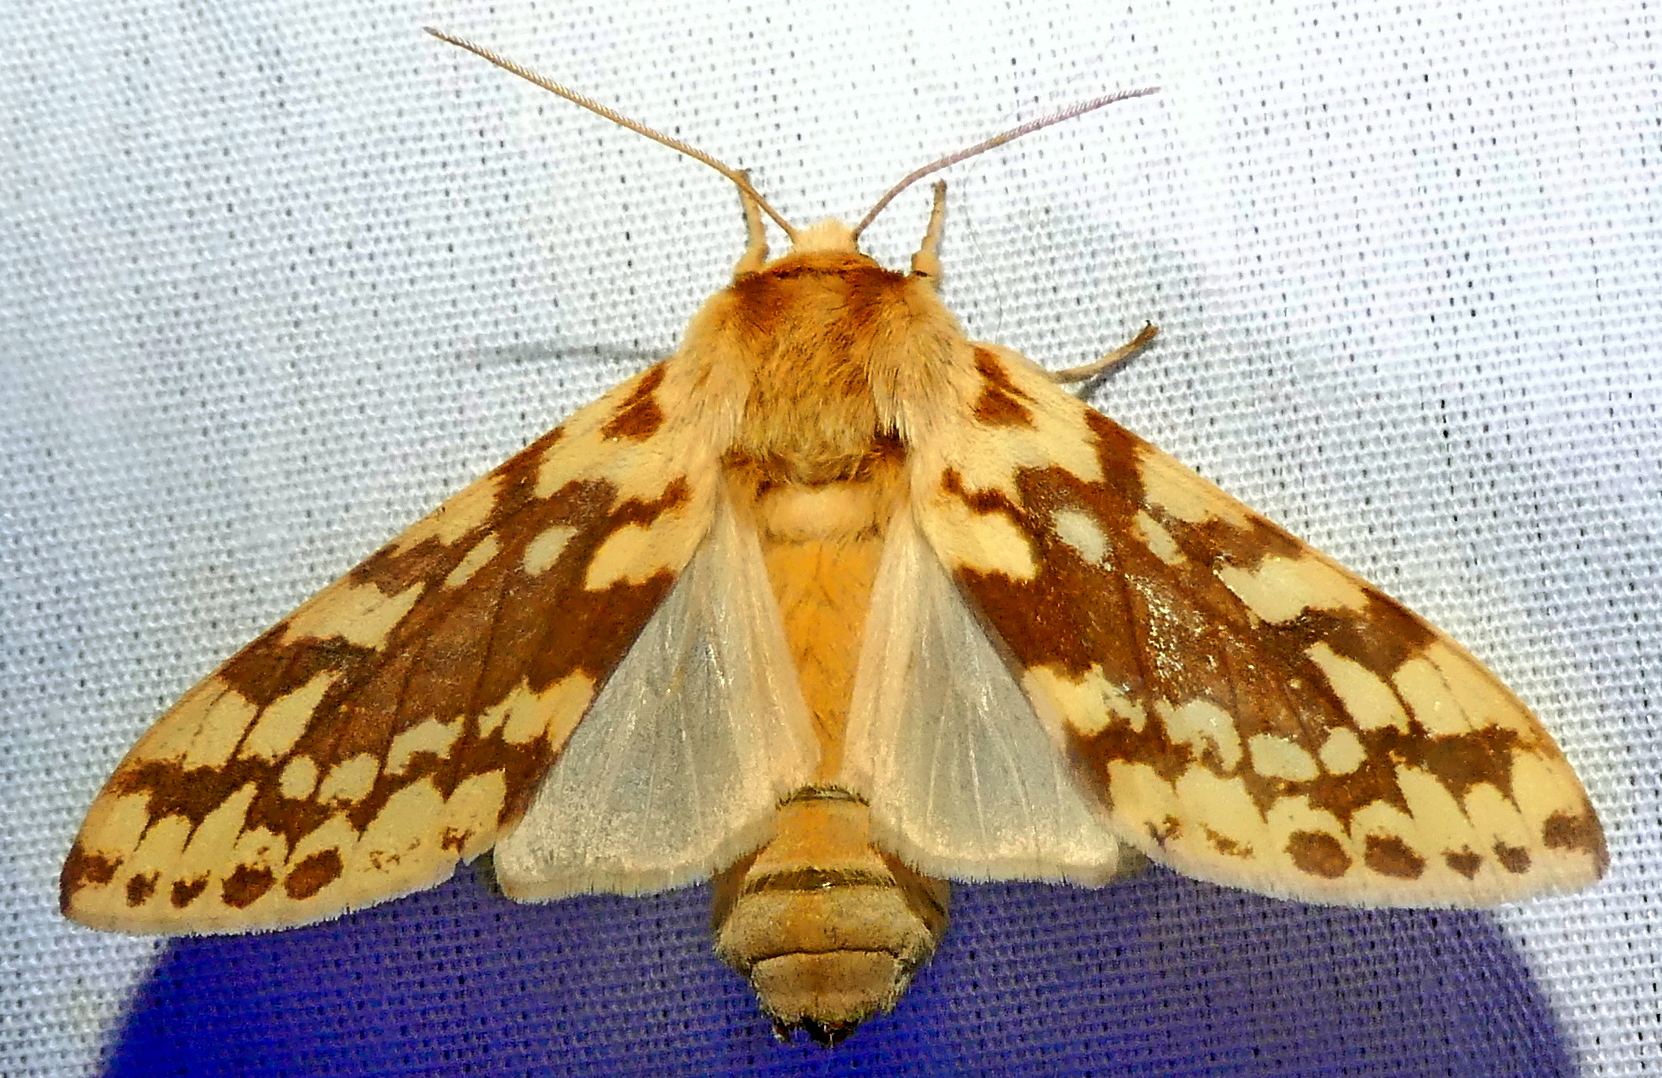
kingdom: Animalia
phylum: Arthropoda
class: Insecta
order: Lepidoptera
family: Erebidae
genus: Lophocampa
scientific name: Lophocampa maculata
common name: Spotted tussock moth
